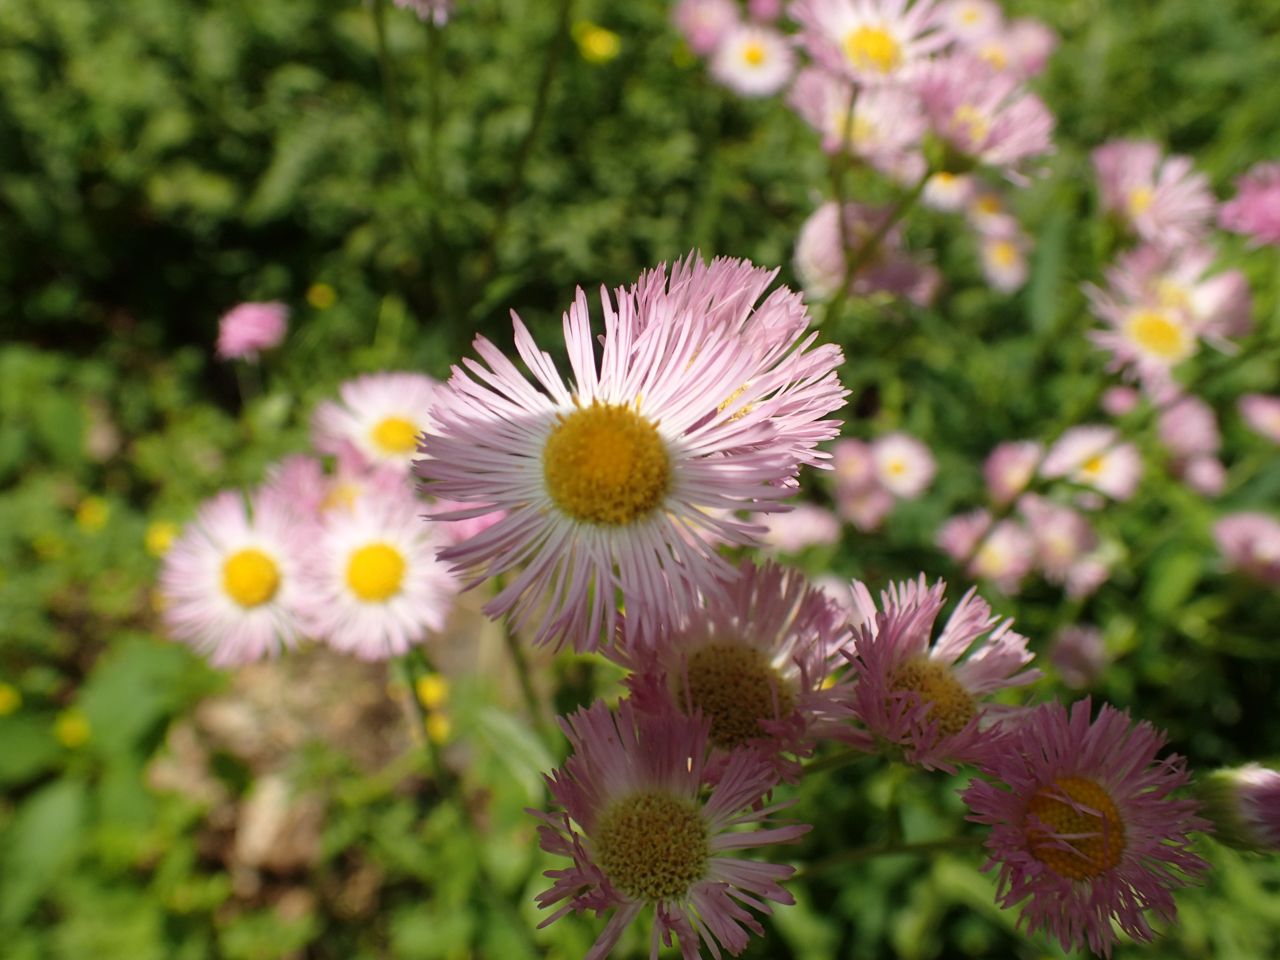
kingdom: Plantae
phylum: Tracheophyta
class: Magnoliopsida
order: Asterales
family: Asteraceae
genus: Erigeron
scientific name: Erigeron philadelphicus
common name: Robin's-plantain
